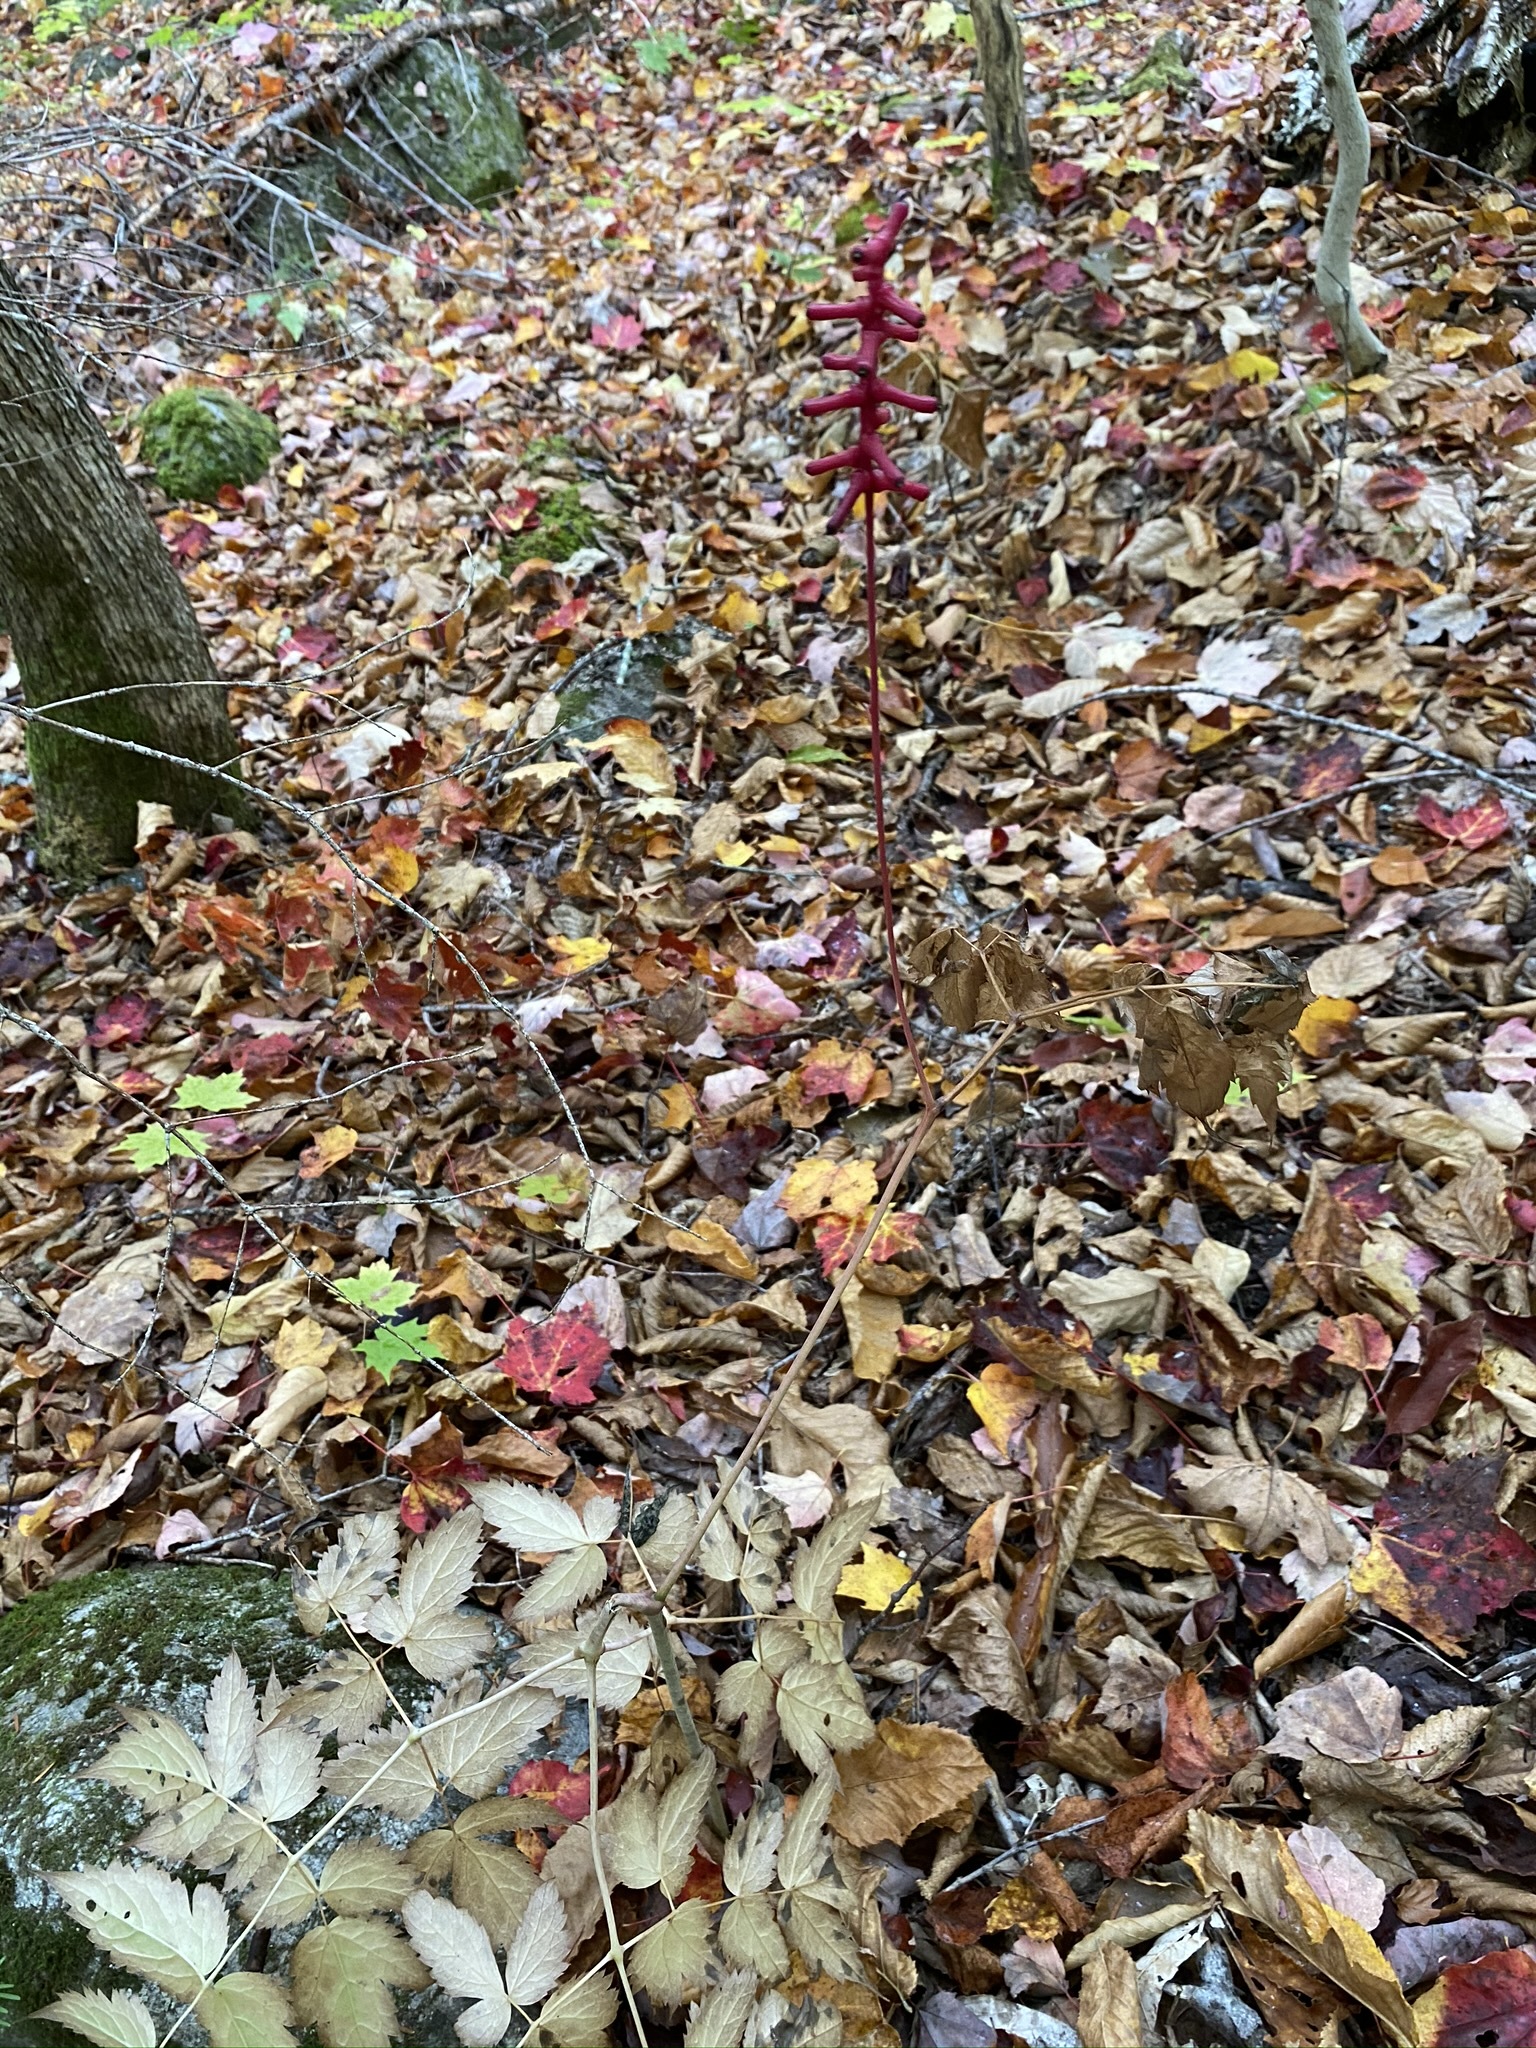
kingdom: Plantae
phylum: Tracheophyta
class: Magnoliopsida
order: Ranunculales
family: Ranunculaceae
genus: Actaea
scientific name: Actaea pachypoda
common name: Doll's-eyes
